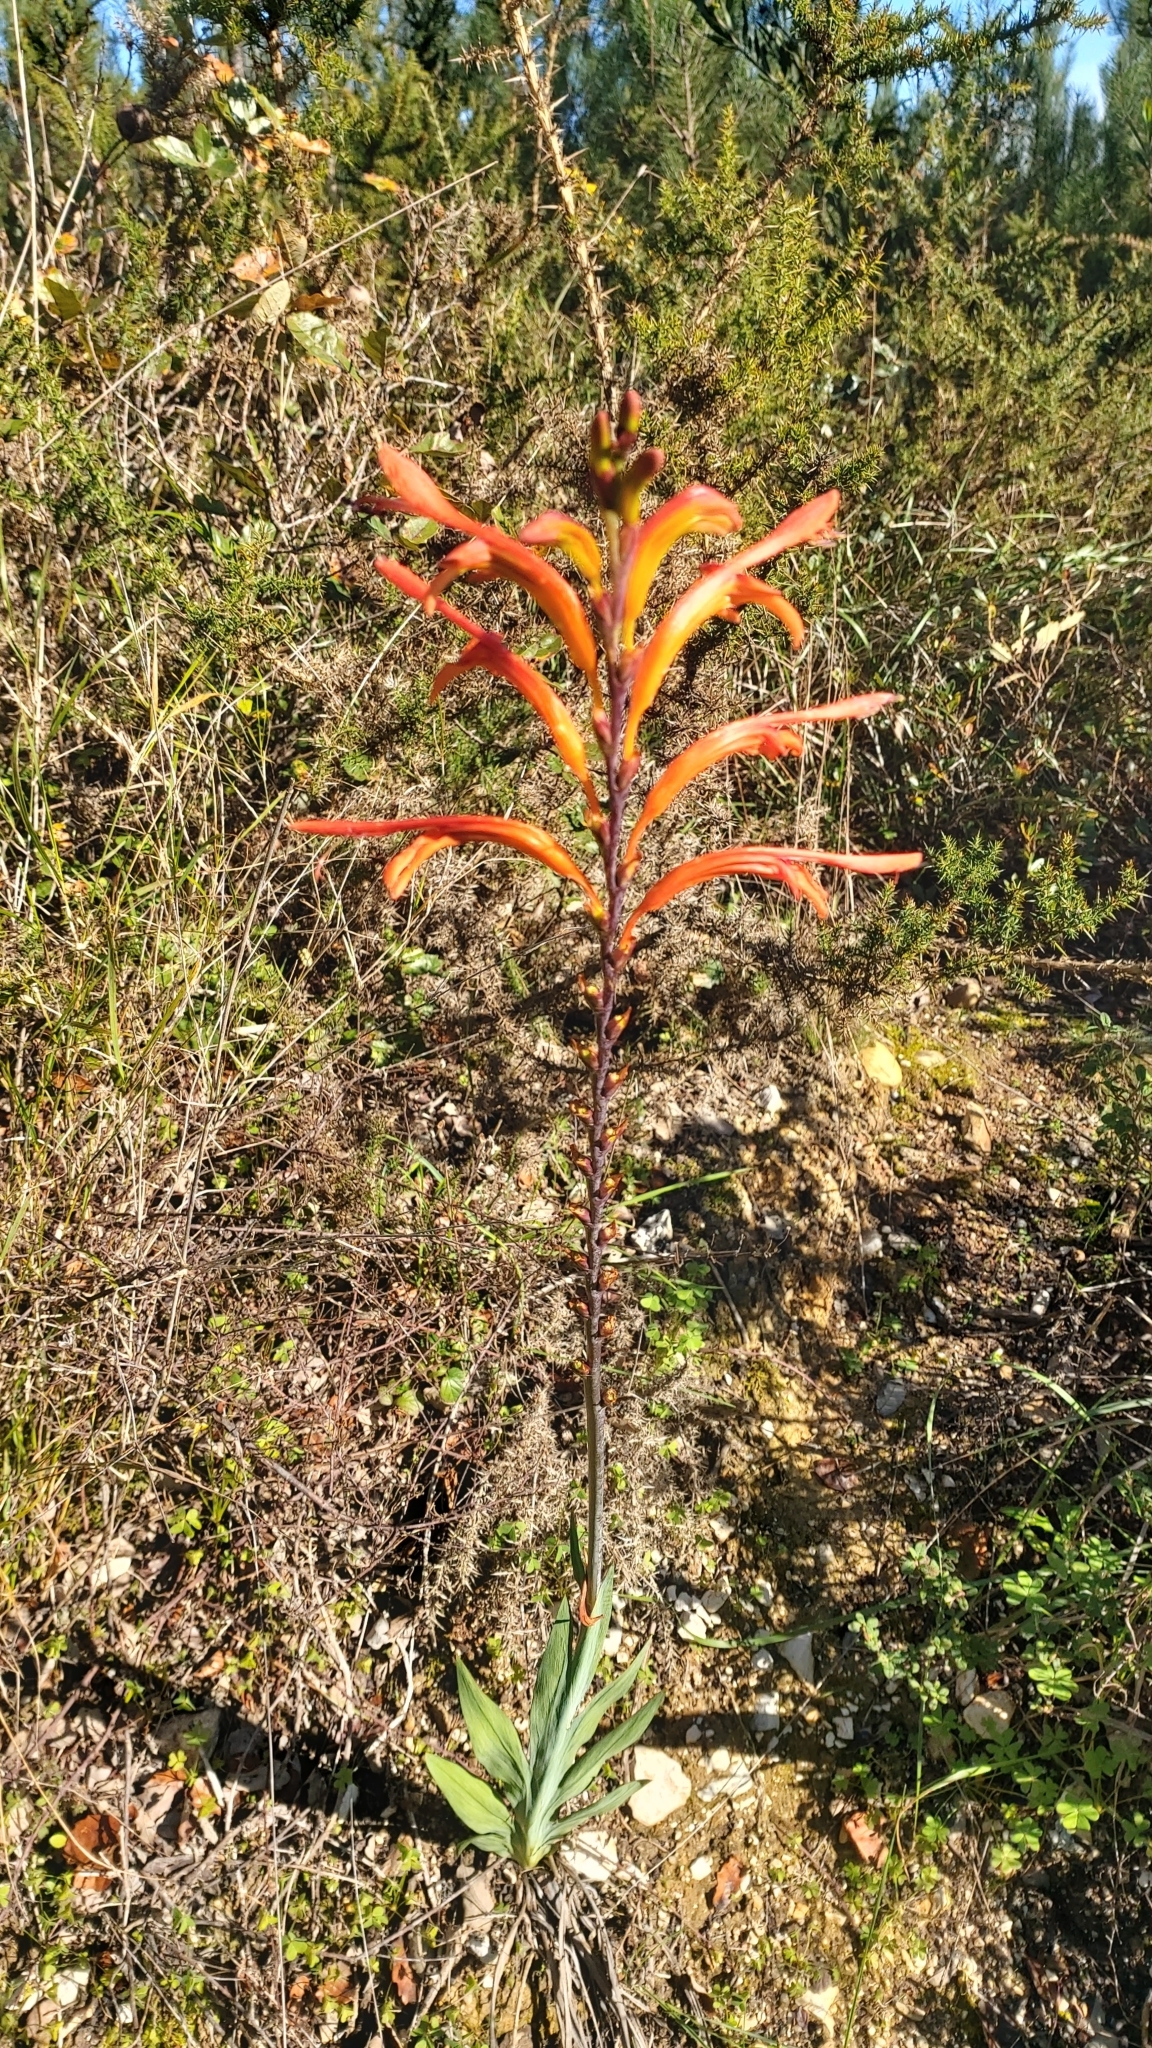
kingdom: Plantae
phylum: Tracheophyta
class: Liliopsida
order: Asparagales
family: Iridaceae
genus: Chasmanthe
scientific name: Chasmanthe floribunda
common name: African cornflag
